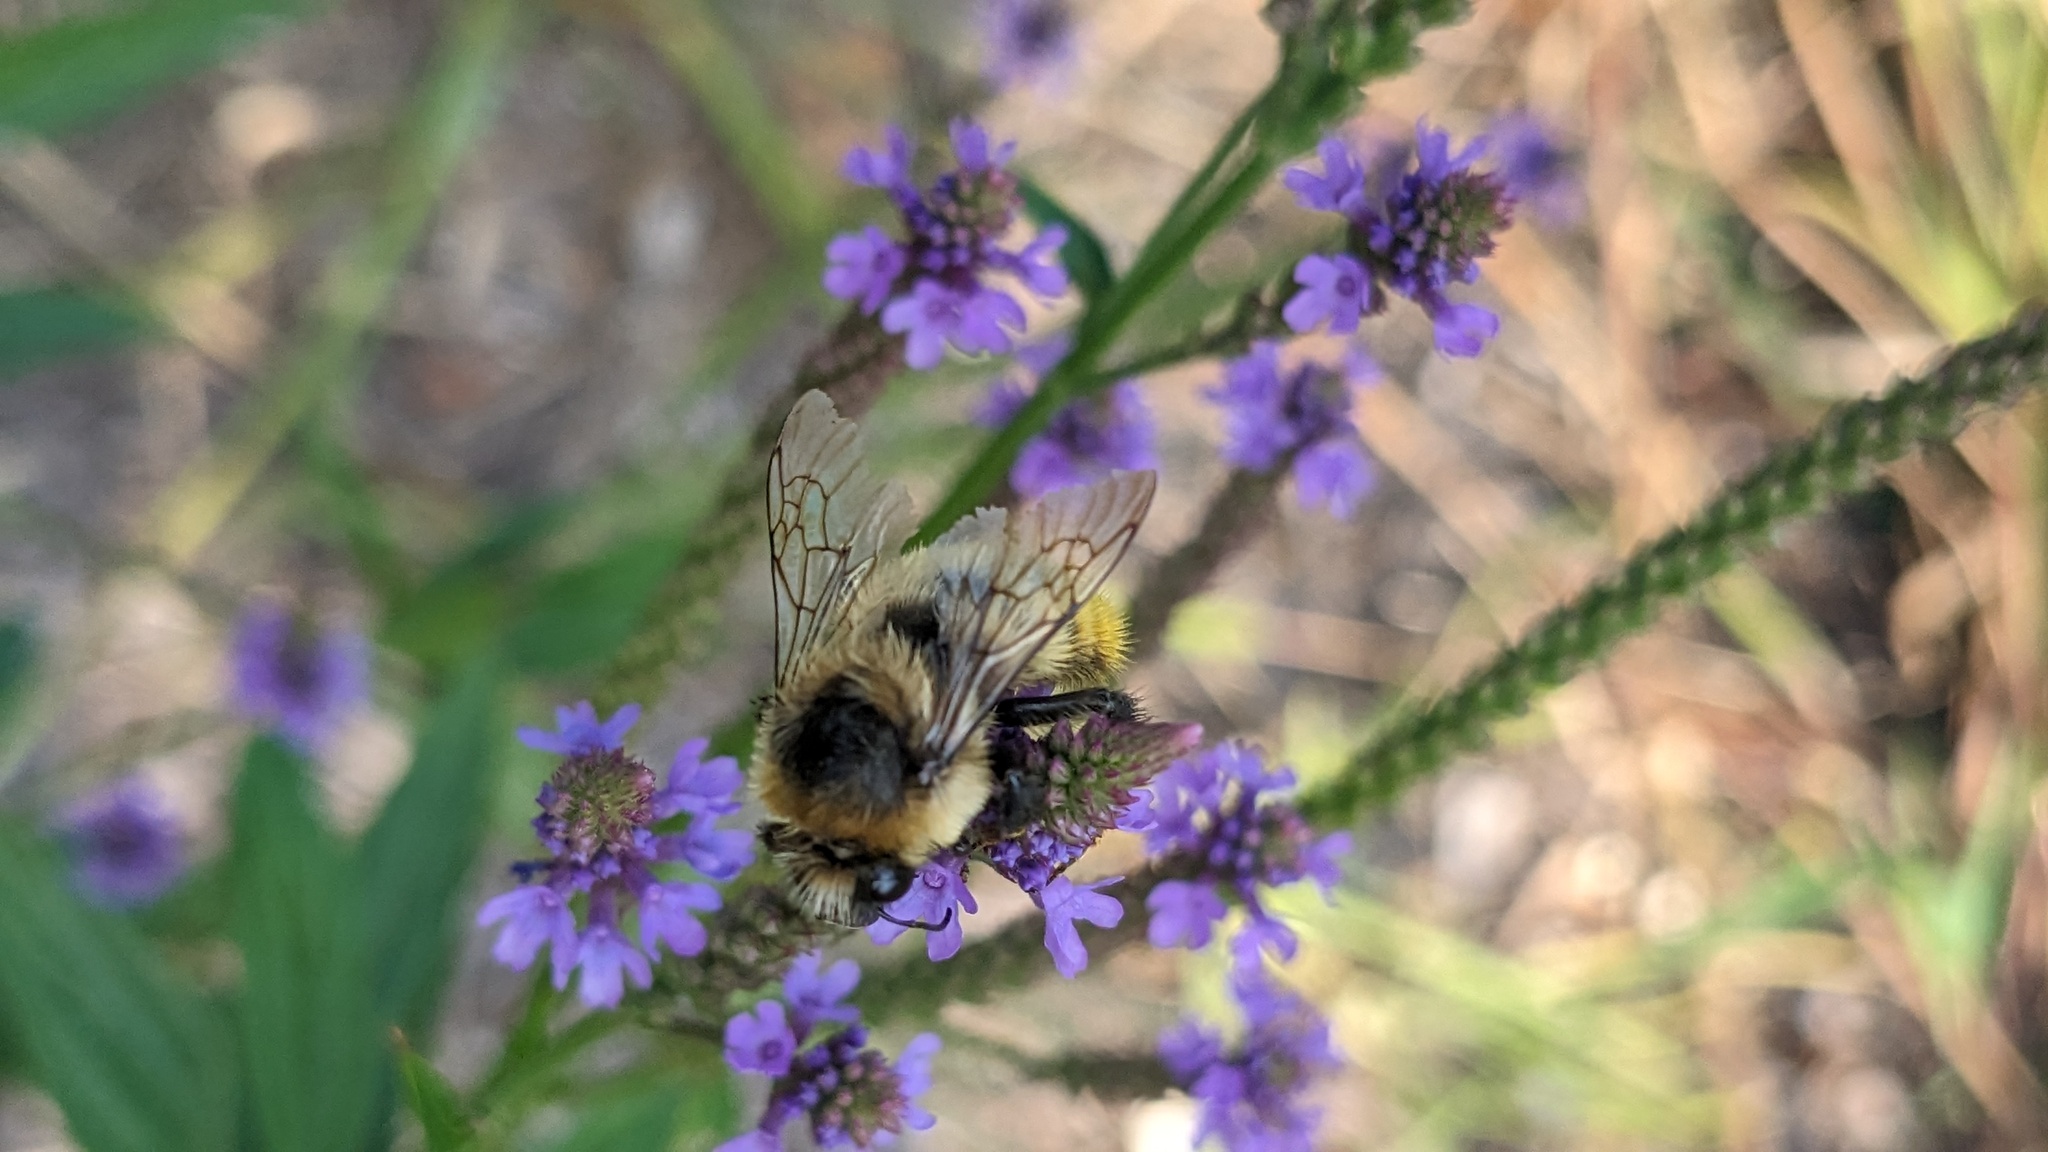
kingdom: Animalia
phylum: Arthropoda
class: Insecta
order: Hymenoptera
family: Apidae
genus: Bombus
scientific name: Bombus rufocinctus
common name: Red-belted bumble bee
